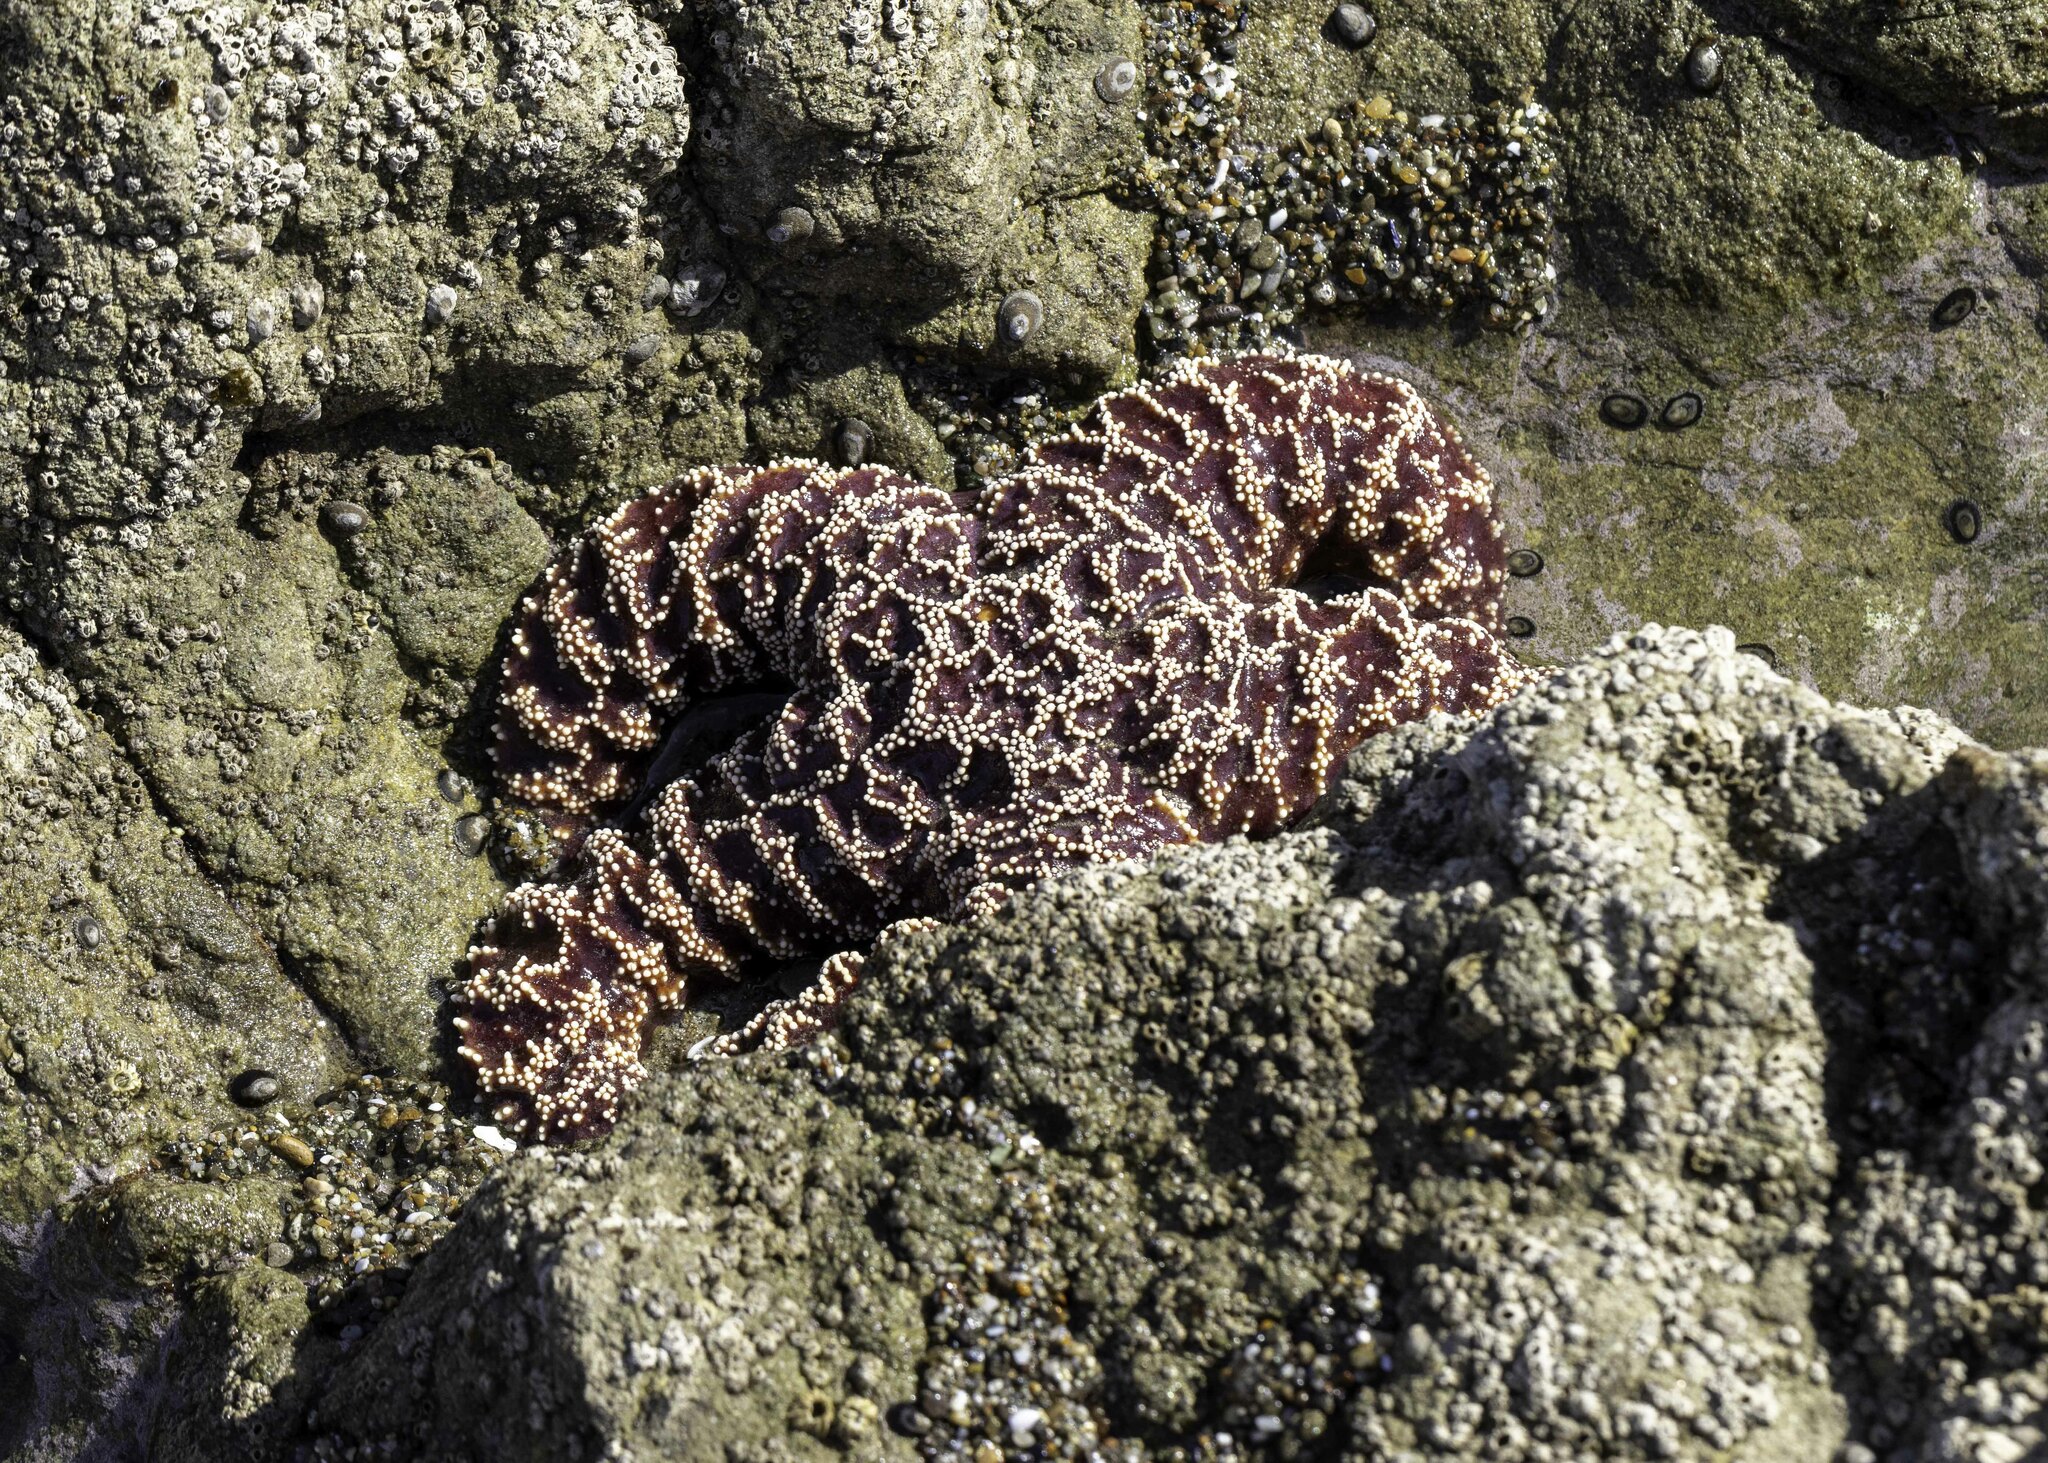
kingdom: Animalia
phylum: Echinodermata
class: Asteroidea
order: Forcipulatida
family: Asteriidae
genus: Pisaster
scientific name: Pisaster ochraceus
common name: Ochre stars
